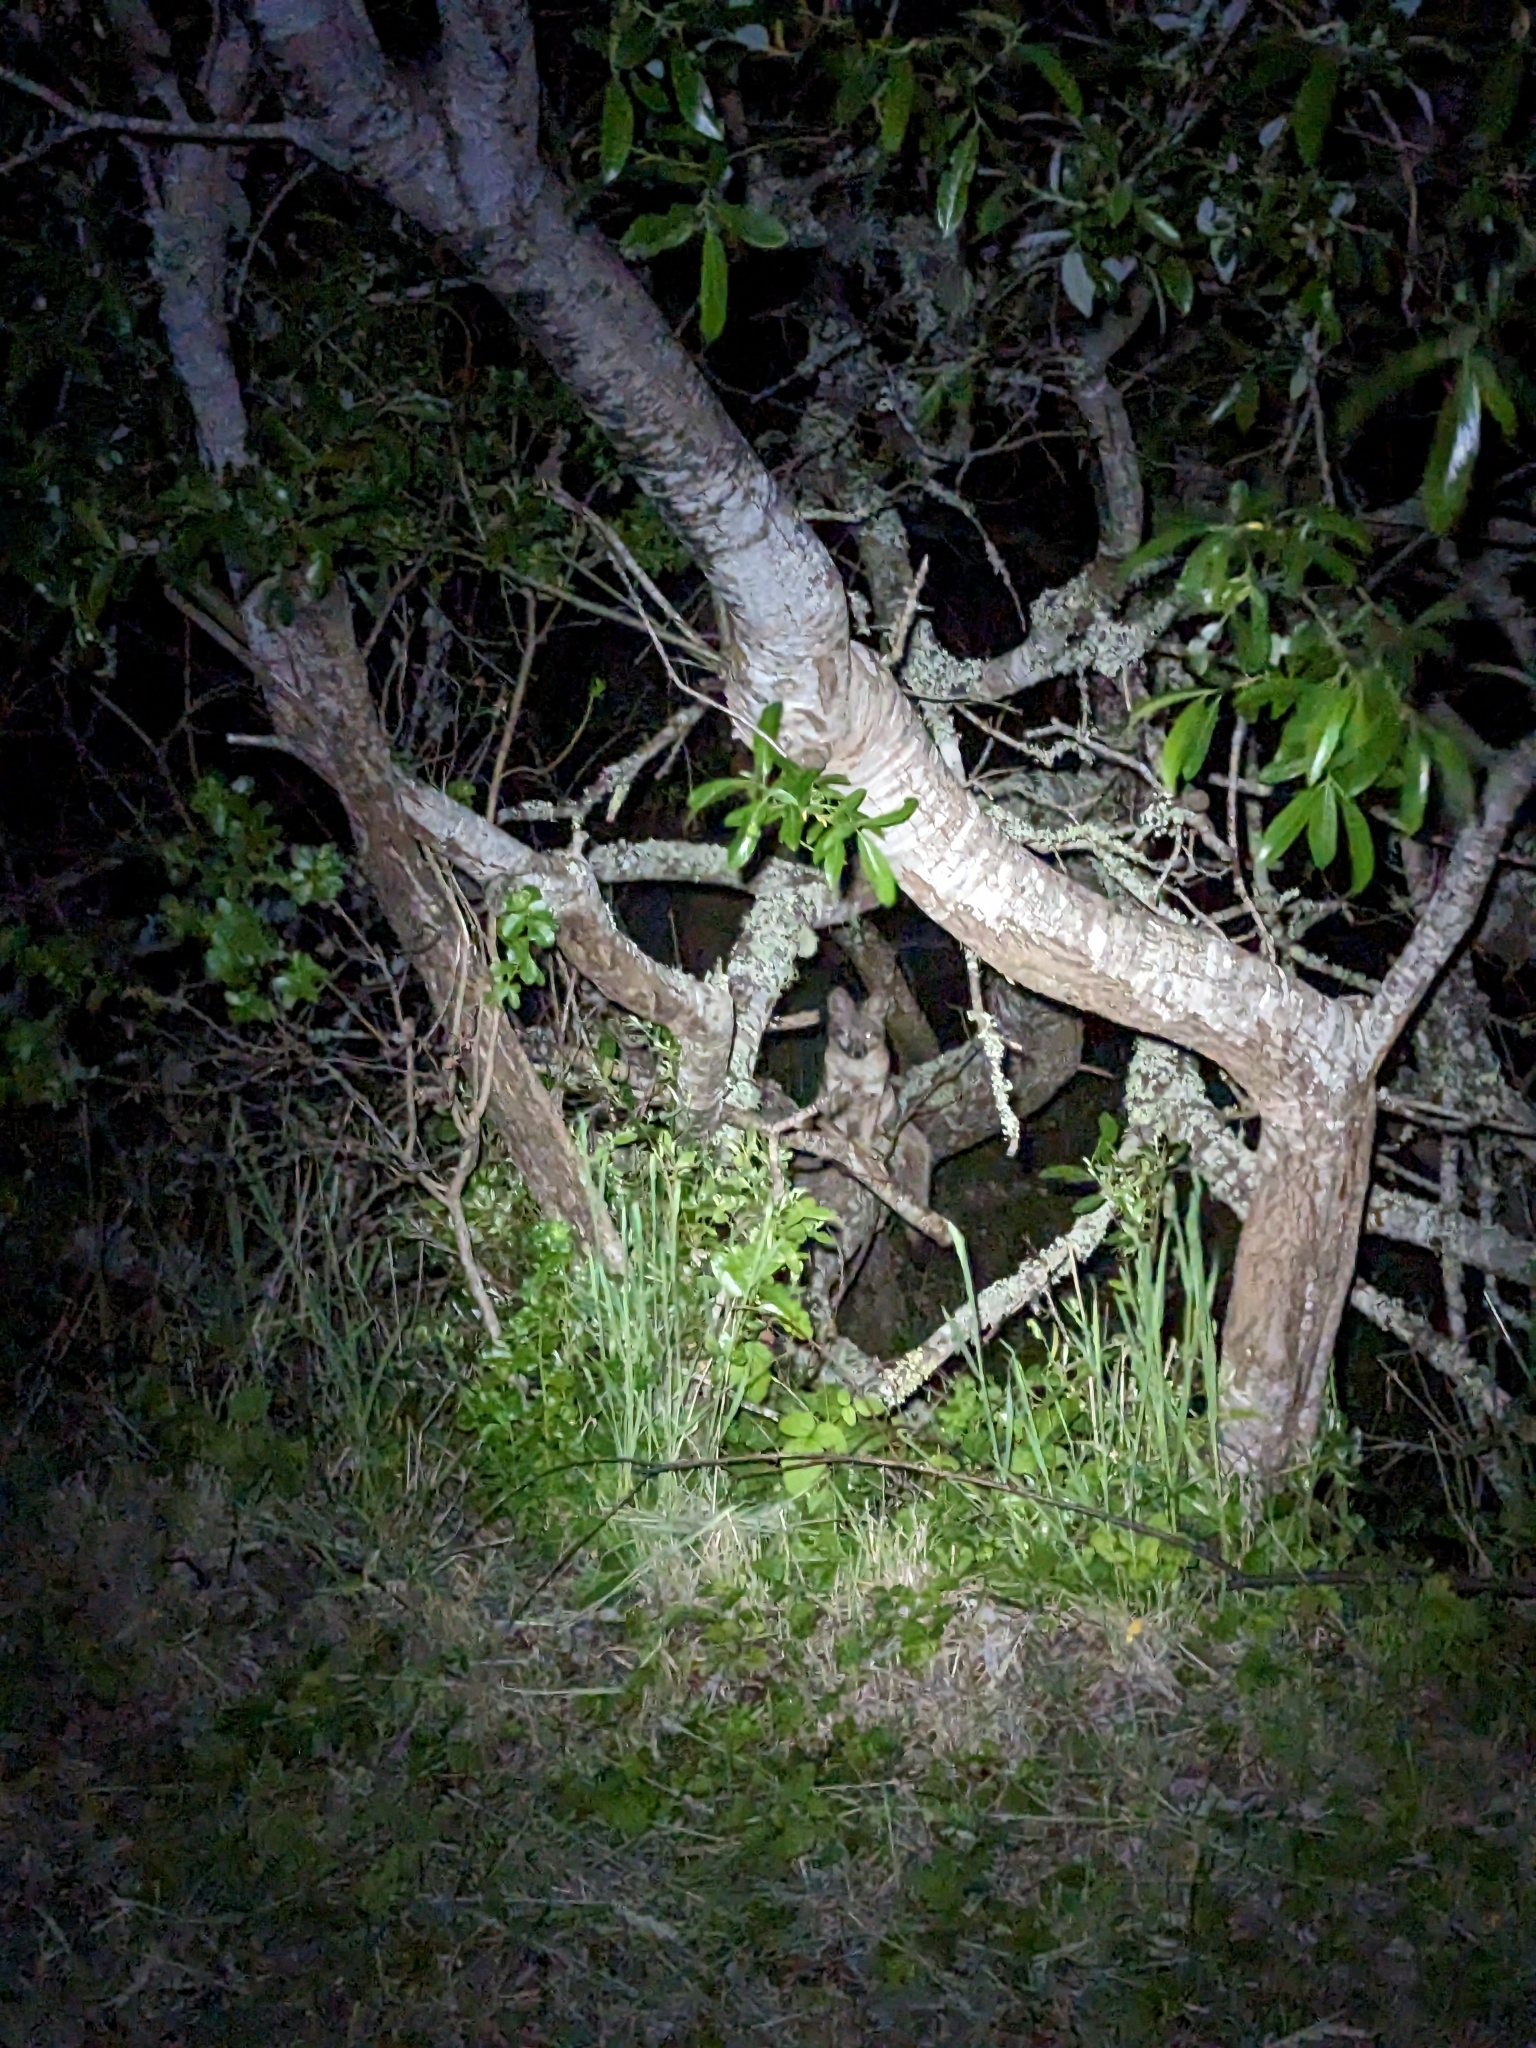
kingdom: Animalia
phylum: Chordata
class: Mammalia
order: Carnivora
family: Canidae
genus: Urocyon
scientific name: Urocyon cinereoargenteus
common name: Gray fox
